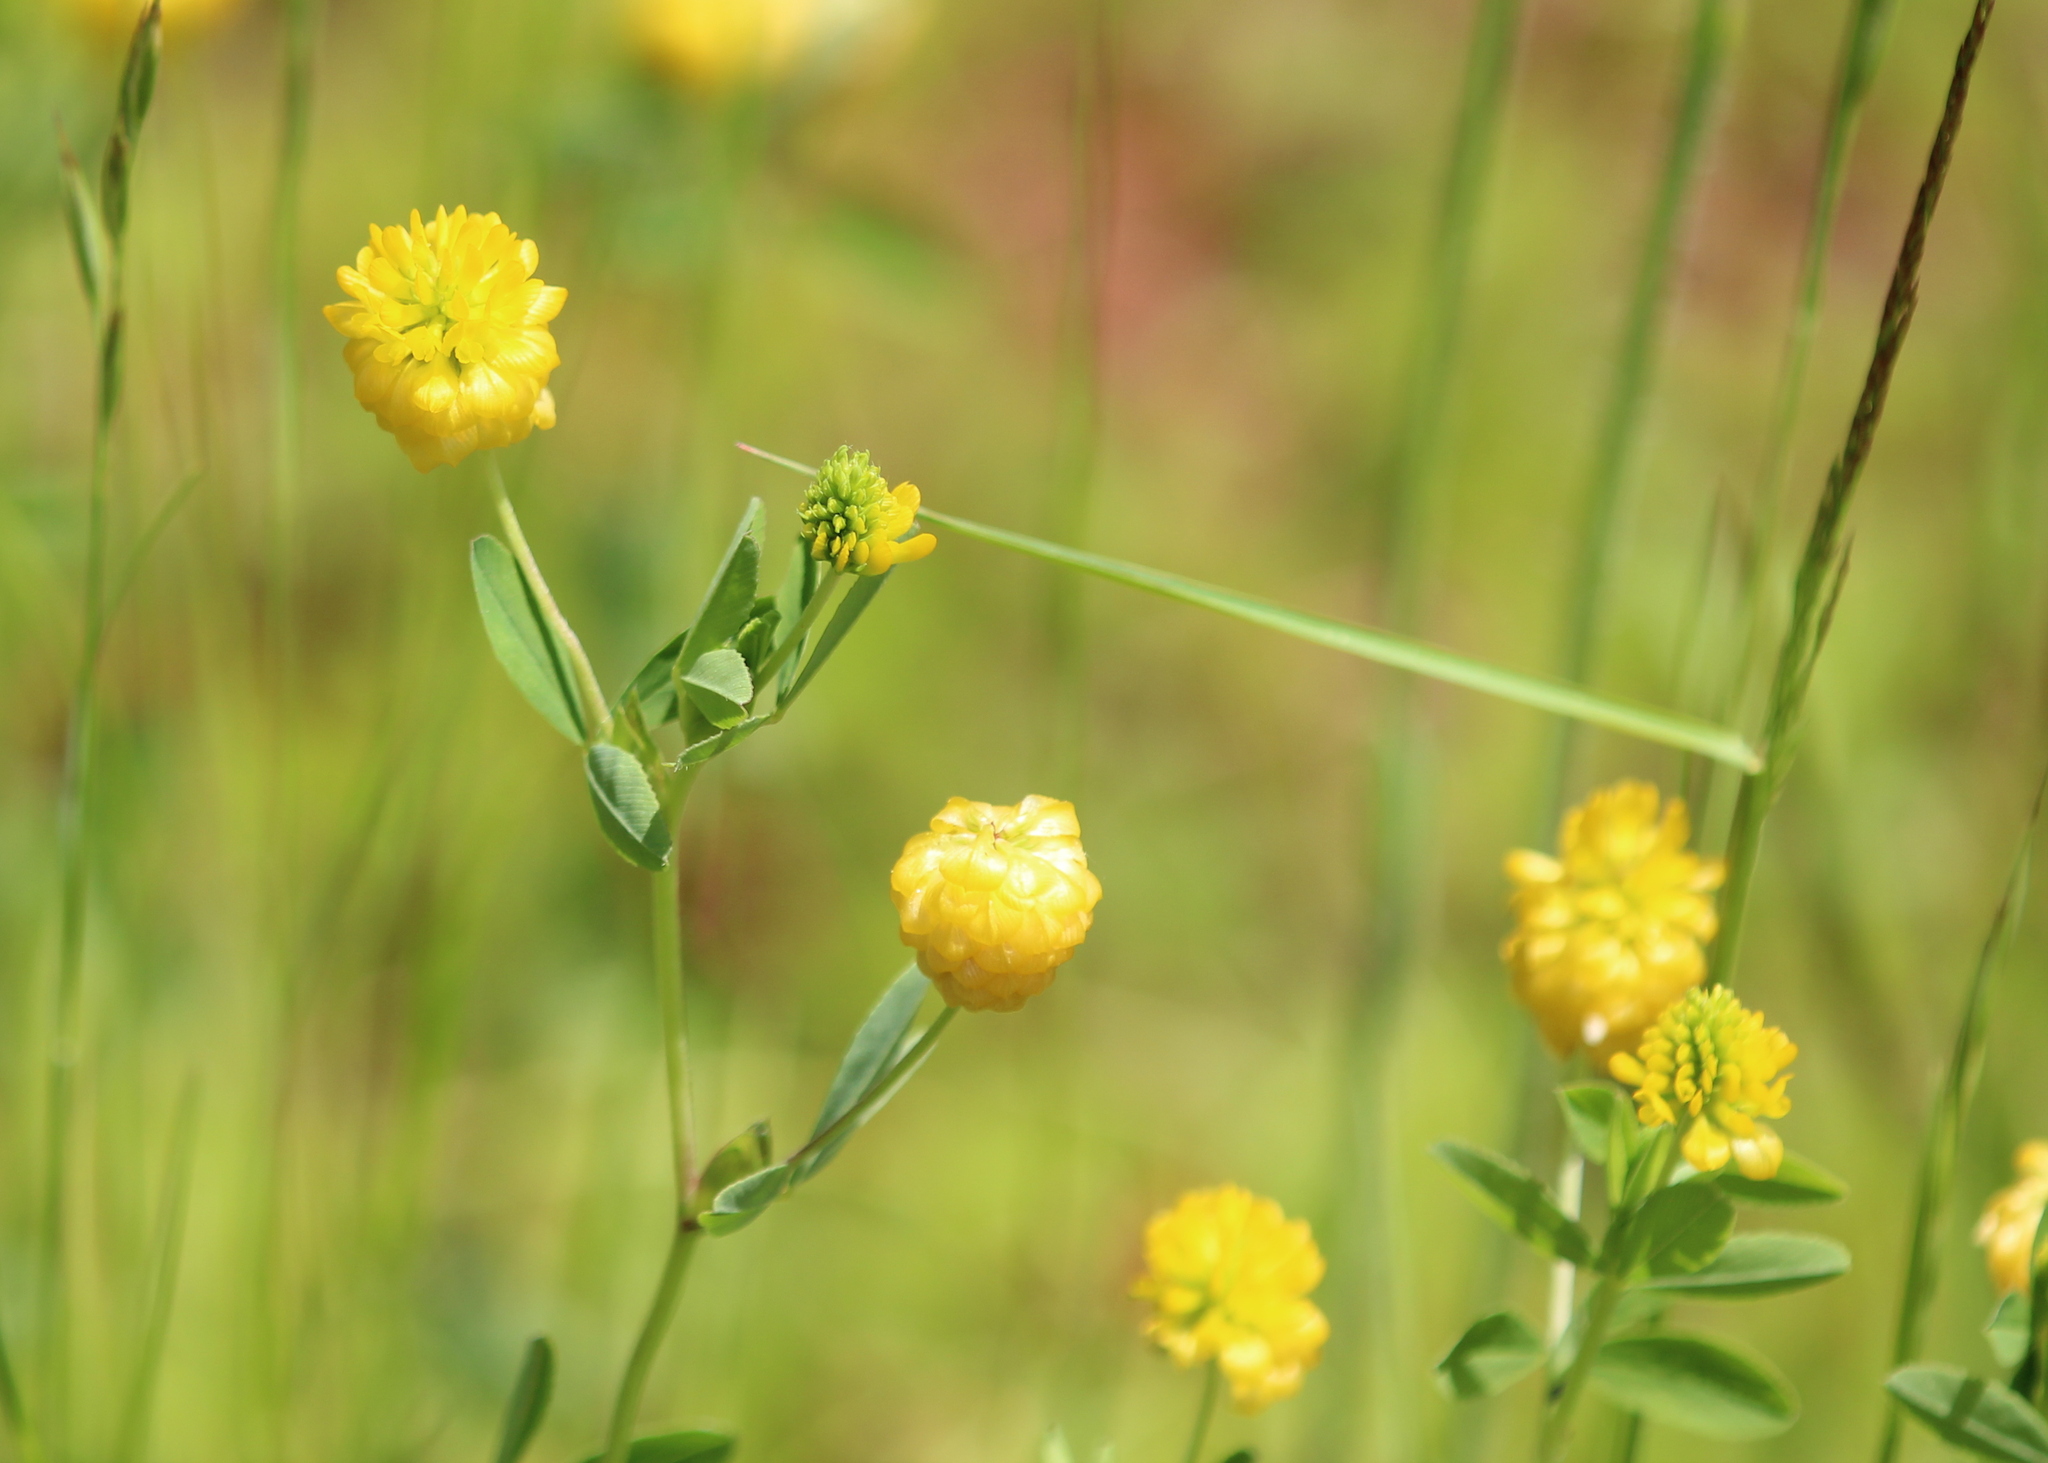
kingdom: Plantae
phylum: Tracheophyta
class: Magnoliopsida
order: Fabales
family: Fabaceae
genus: Trifolium
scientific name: Trifolium aureum
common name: Golden clover
